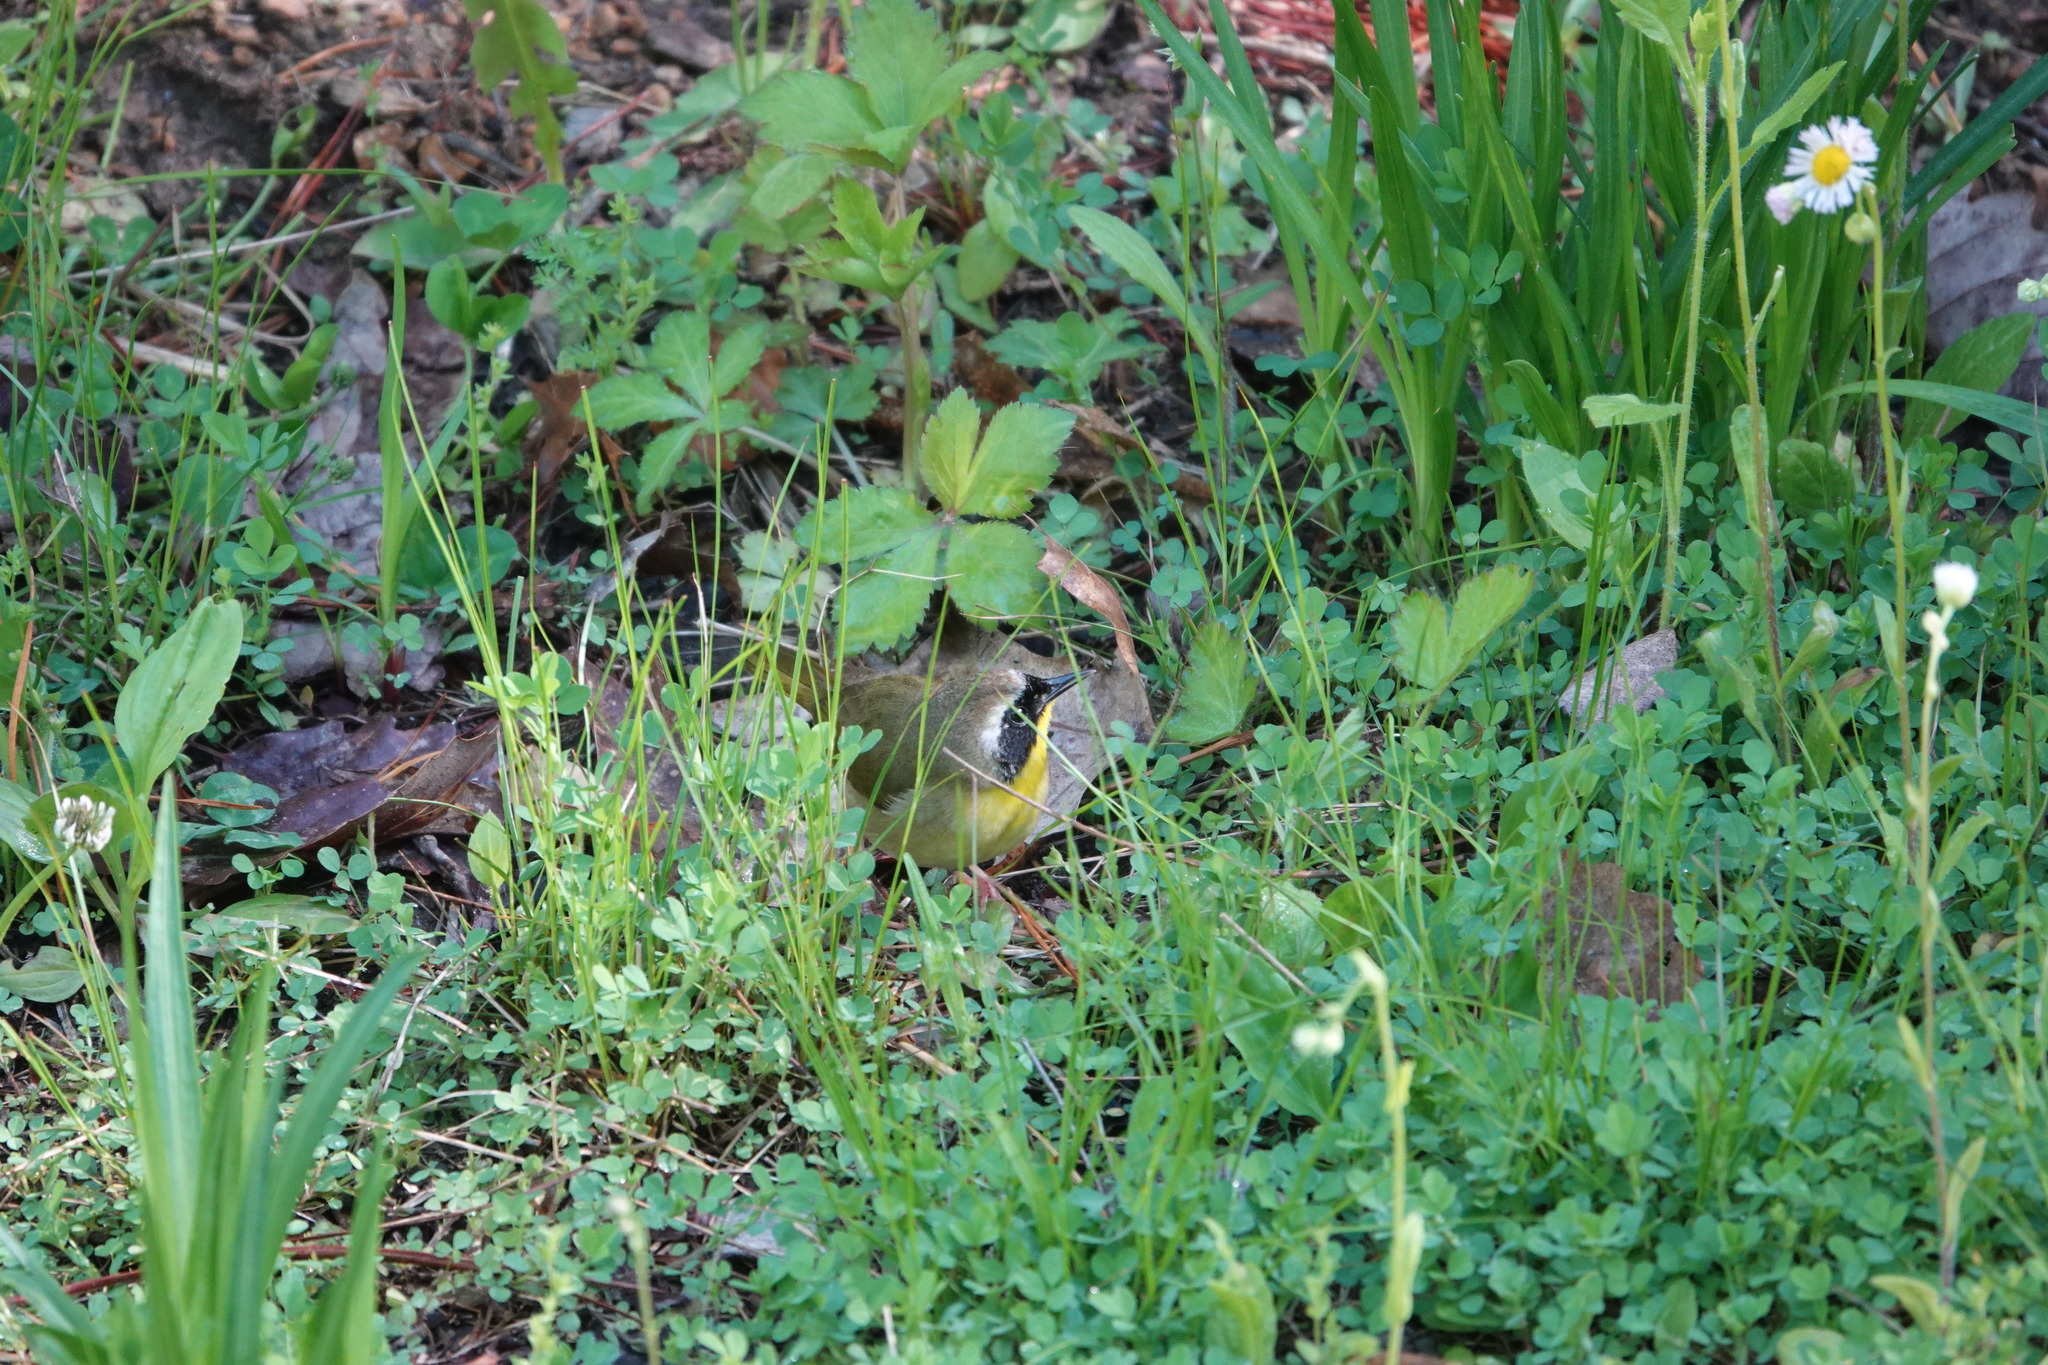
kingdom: Animalia
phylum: Chordata
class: Aves
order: Passeriformes
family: Parulidae
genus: Geothlypis
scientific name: Geothlypis trichas
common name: Common yellowthroat
